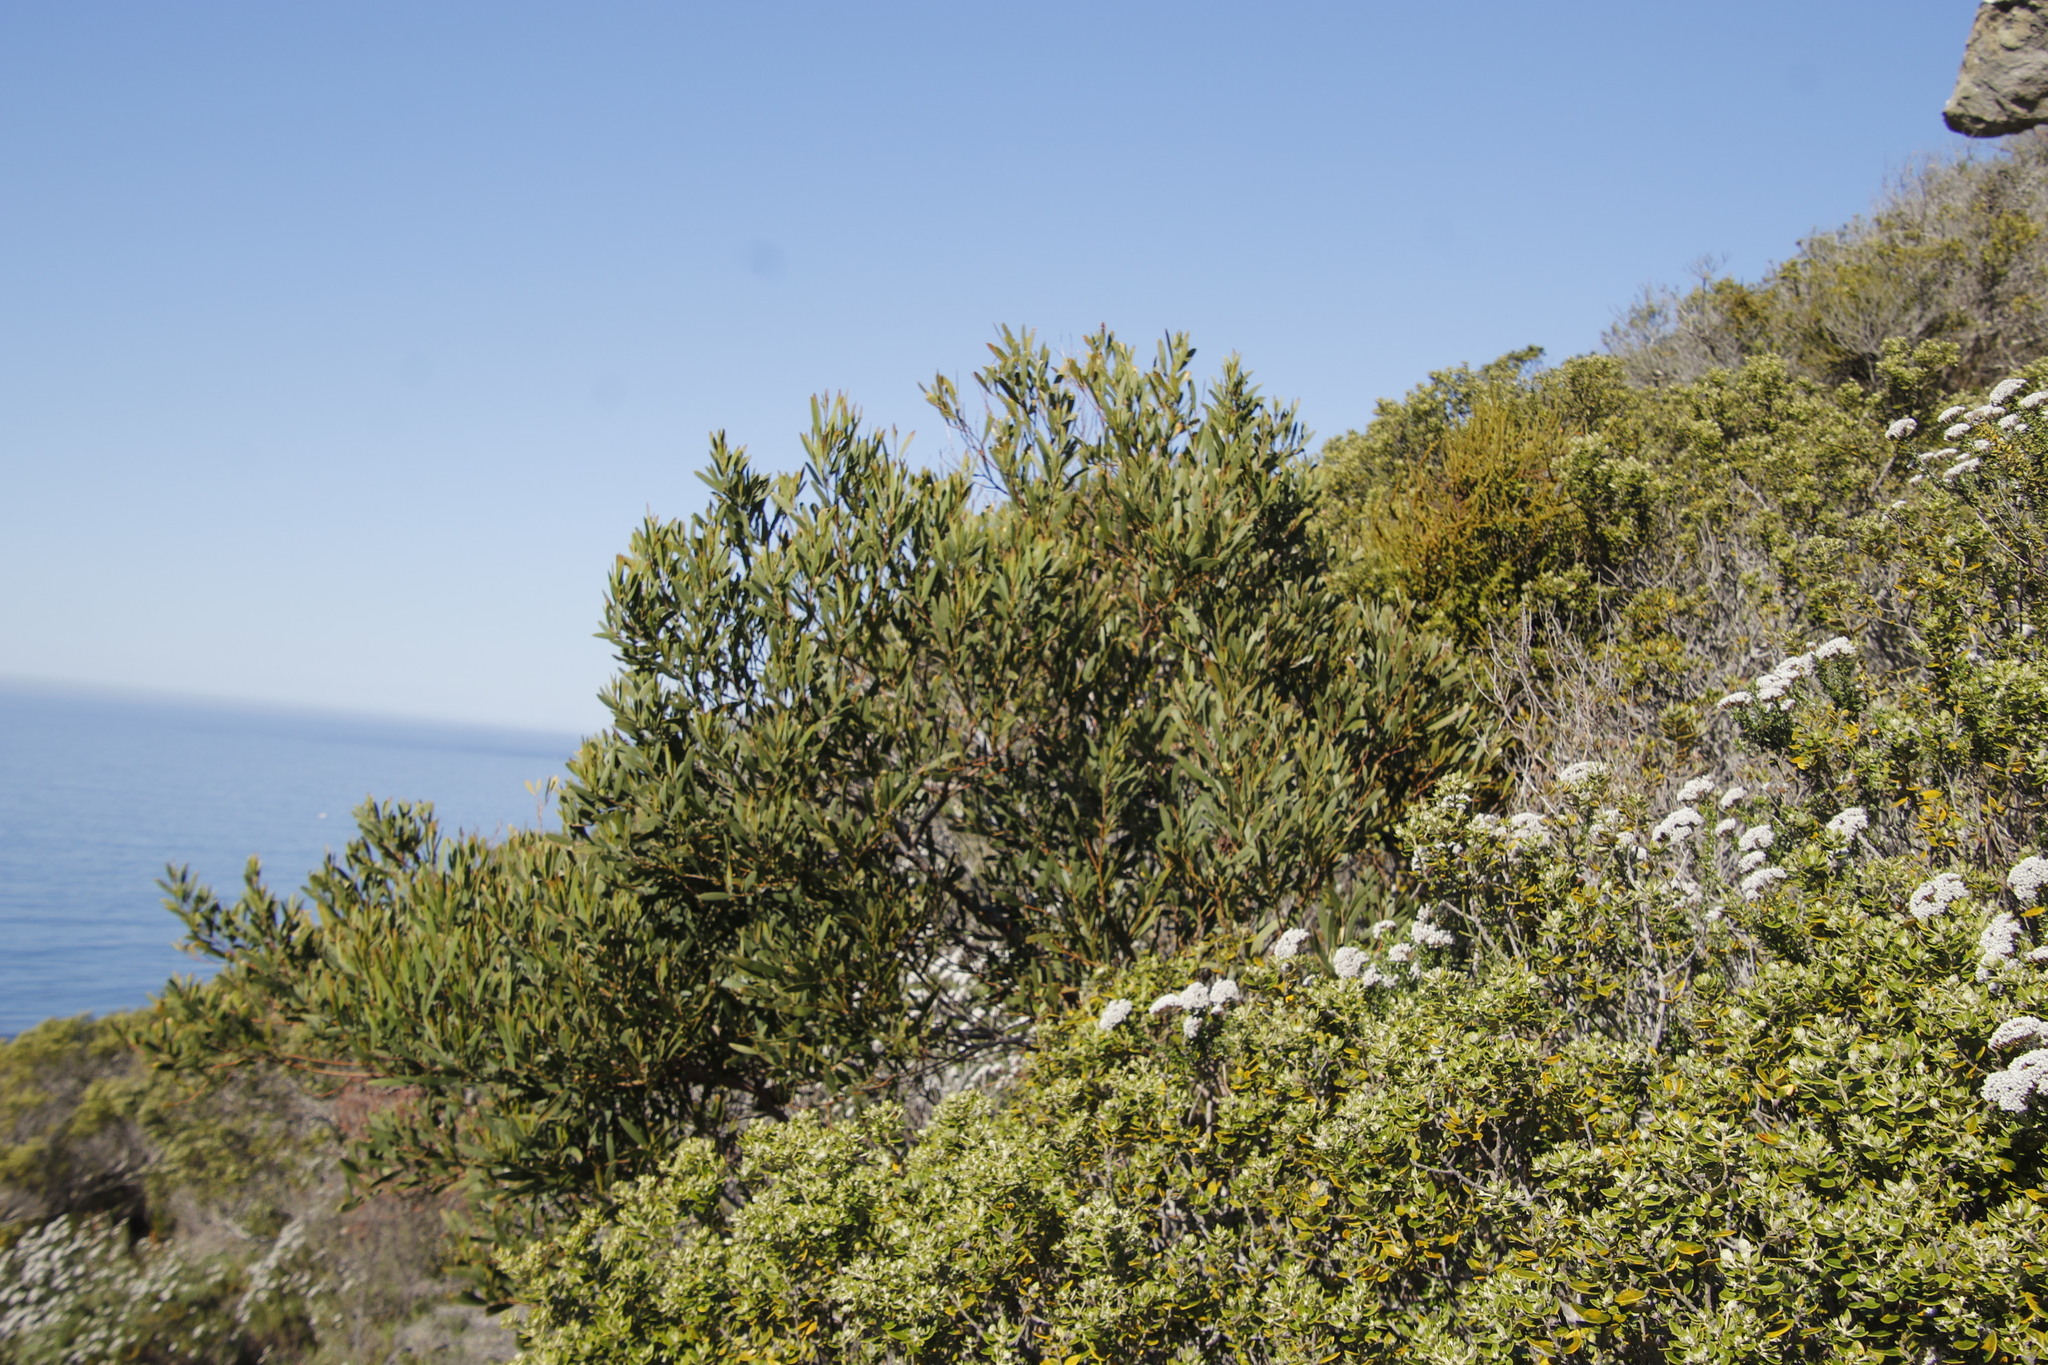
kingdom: Plantae
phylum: Tracheophyta
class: Magnoliopsida
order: Fabales
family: Fabaceae
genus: Acacia
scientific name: Acacia cyclops
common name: Coastal wattle
